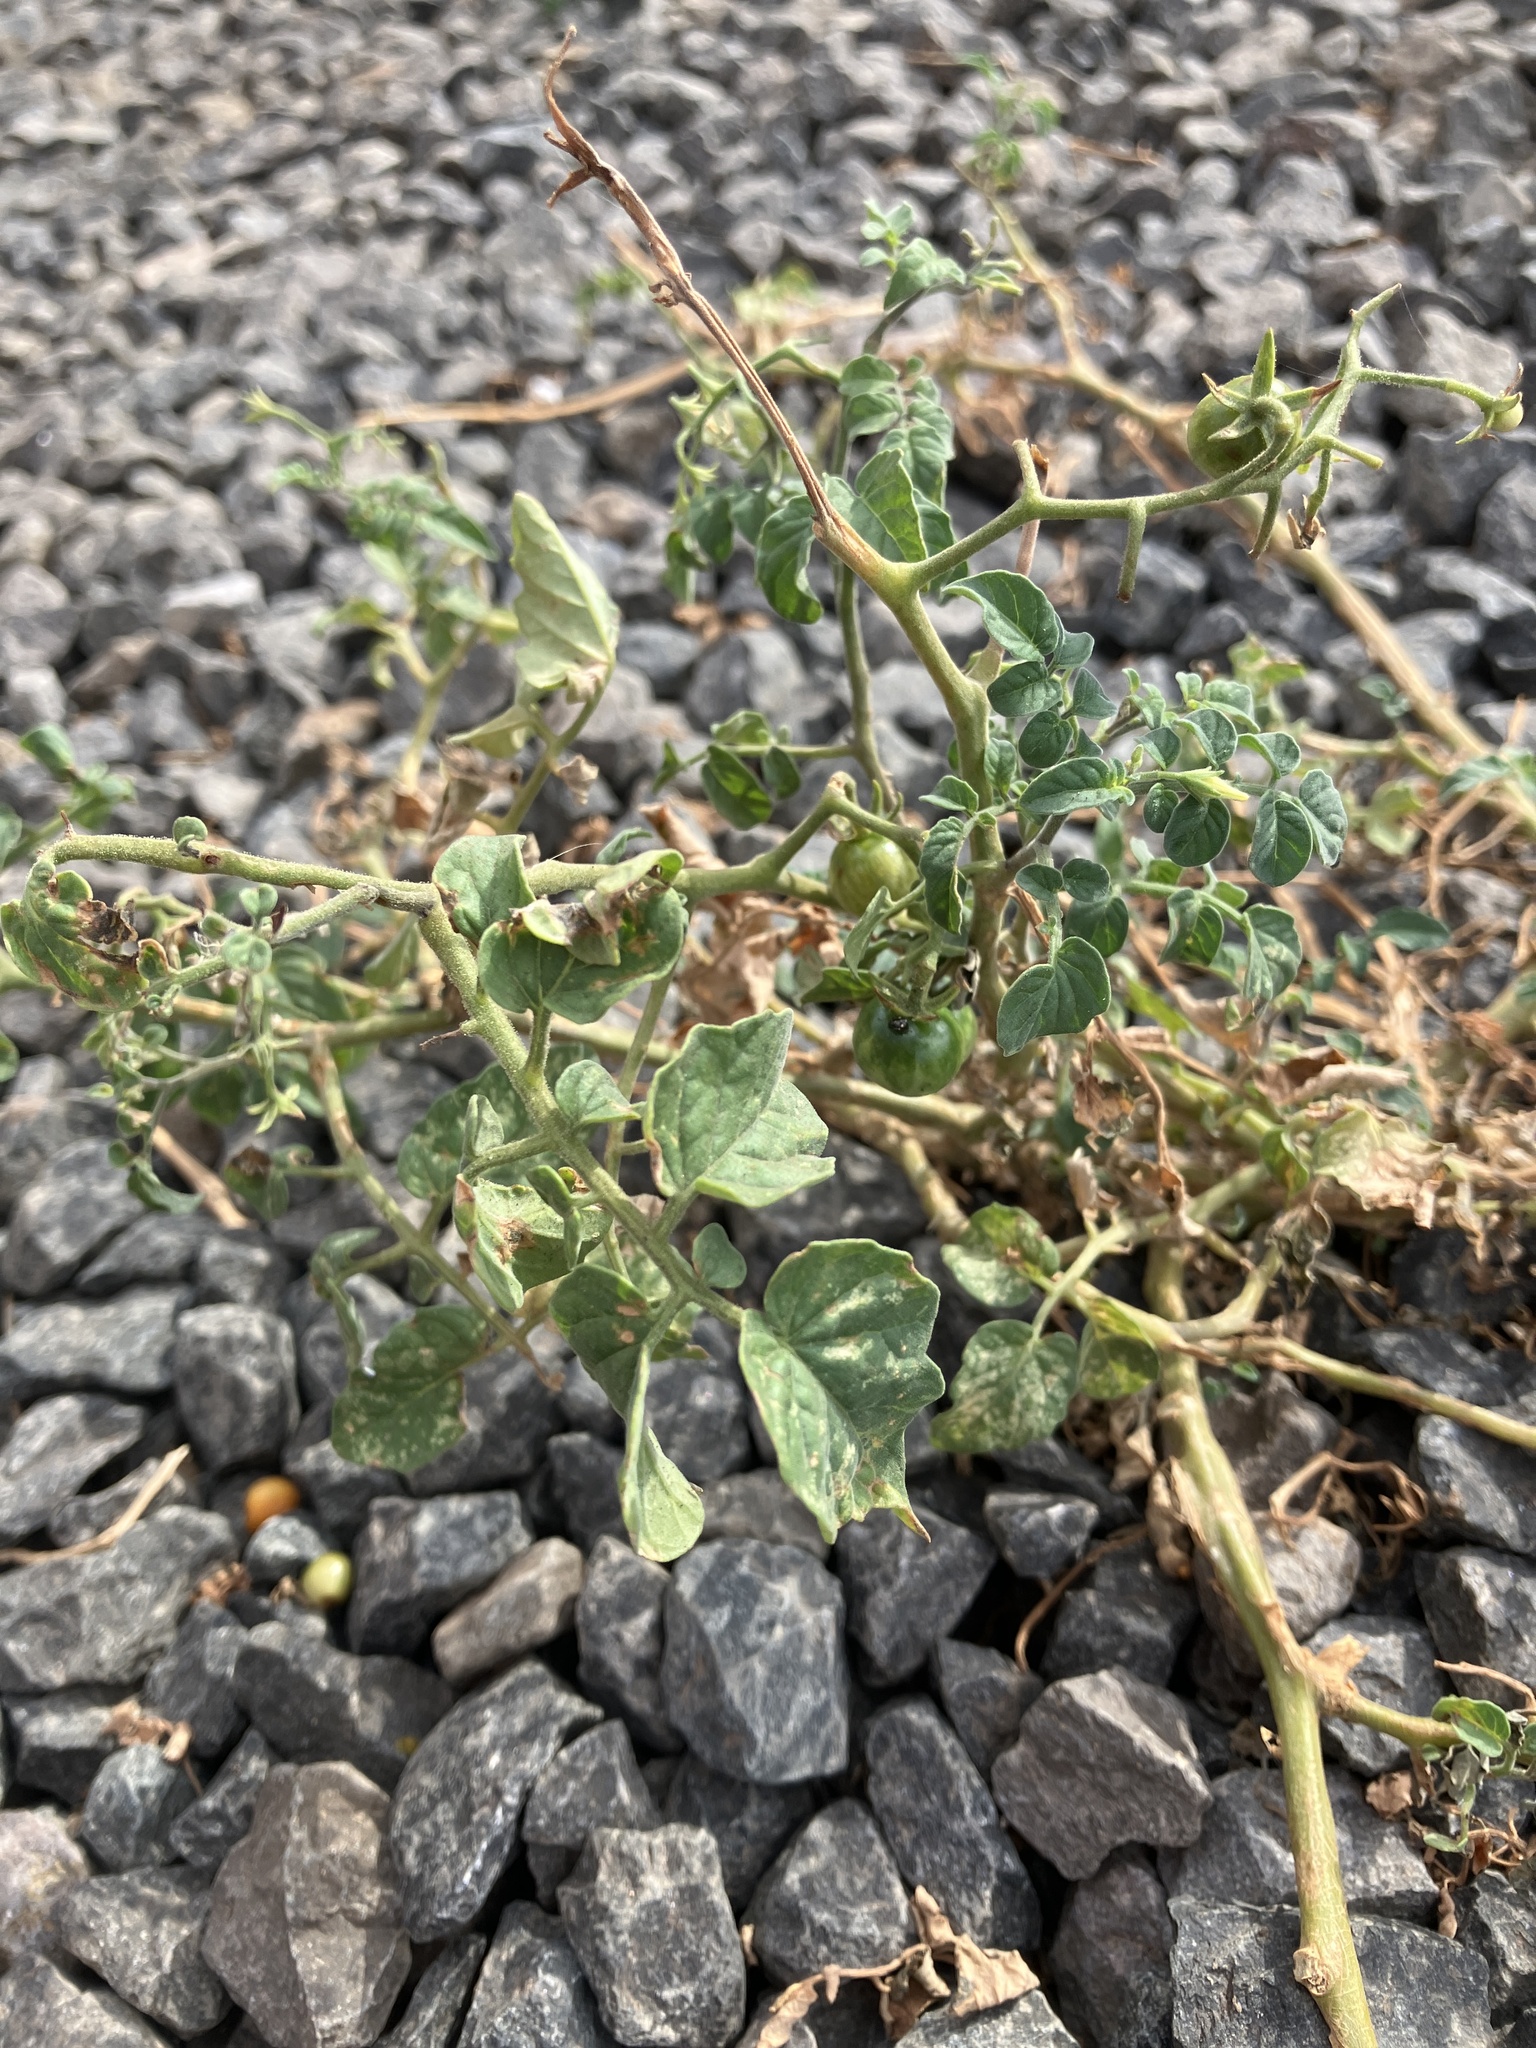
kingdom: Plantae
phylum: Tracheophyta
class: Magnoliopsida
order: Solanales
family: Solanaceae
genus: Solanum
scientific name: Solanum lycopersicum
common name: Garden tomato
